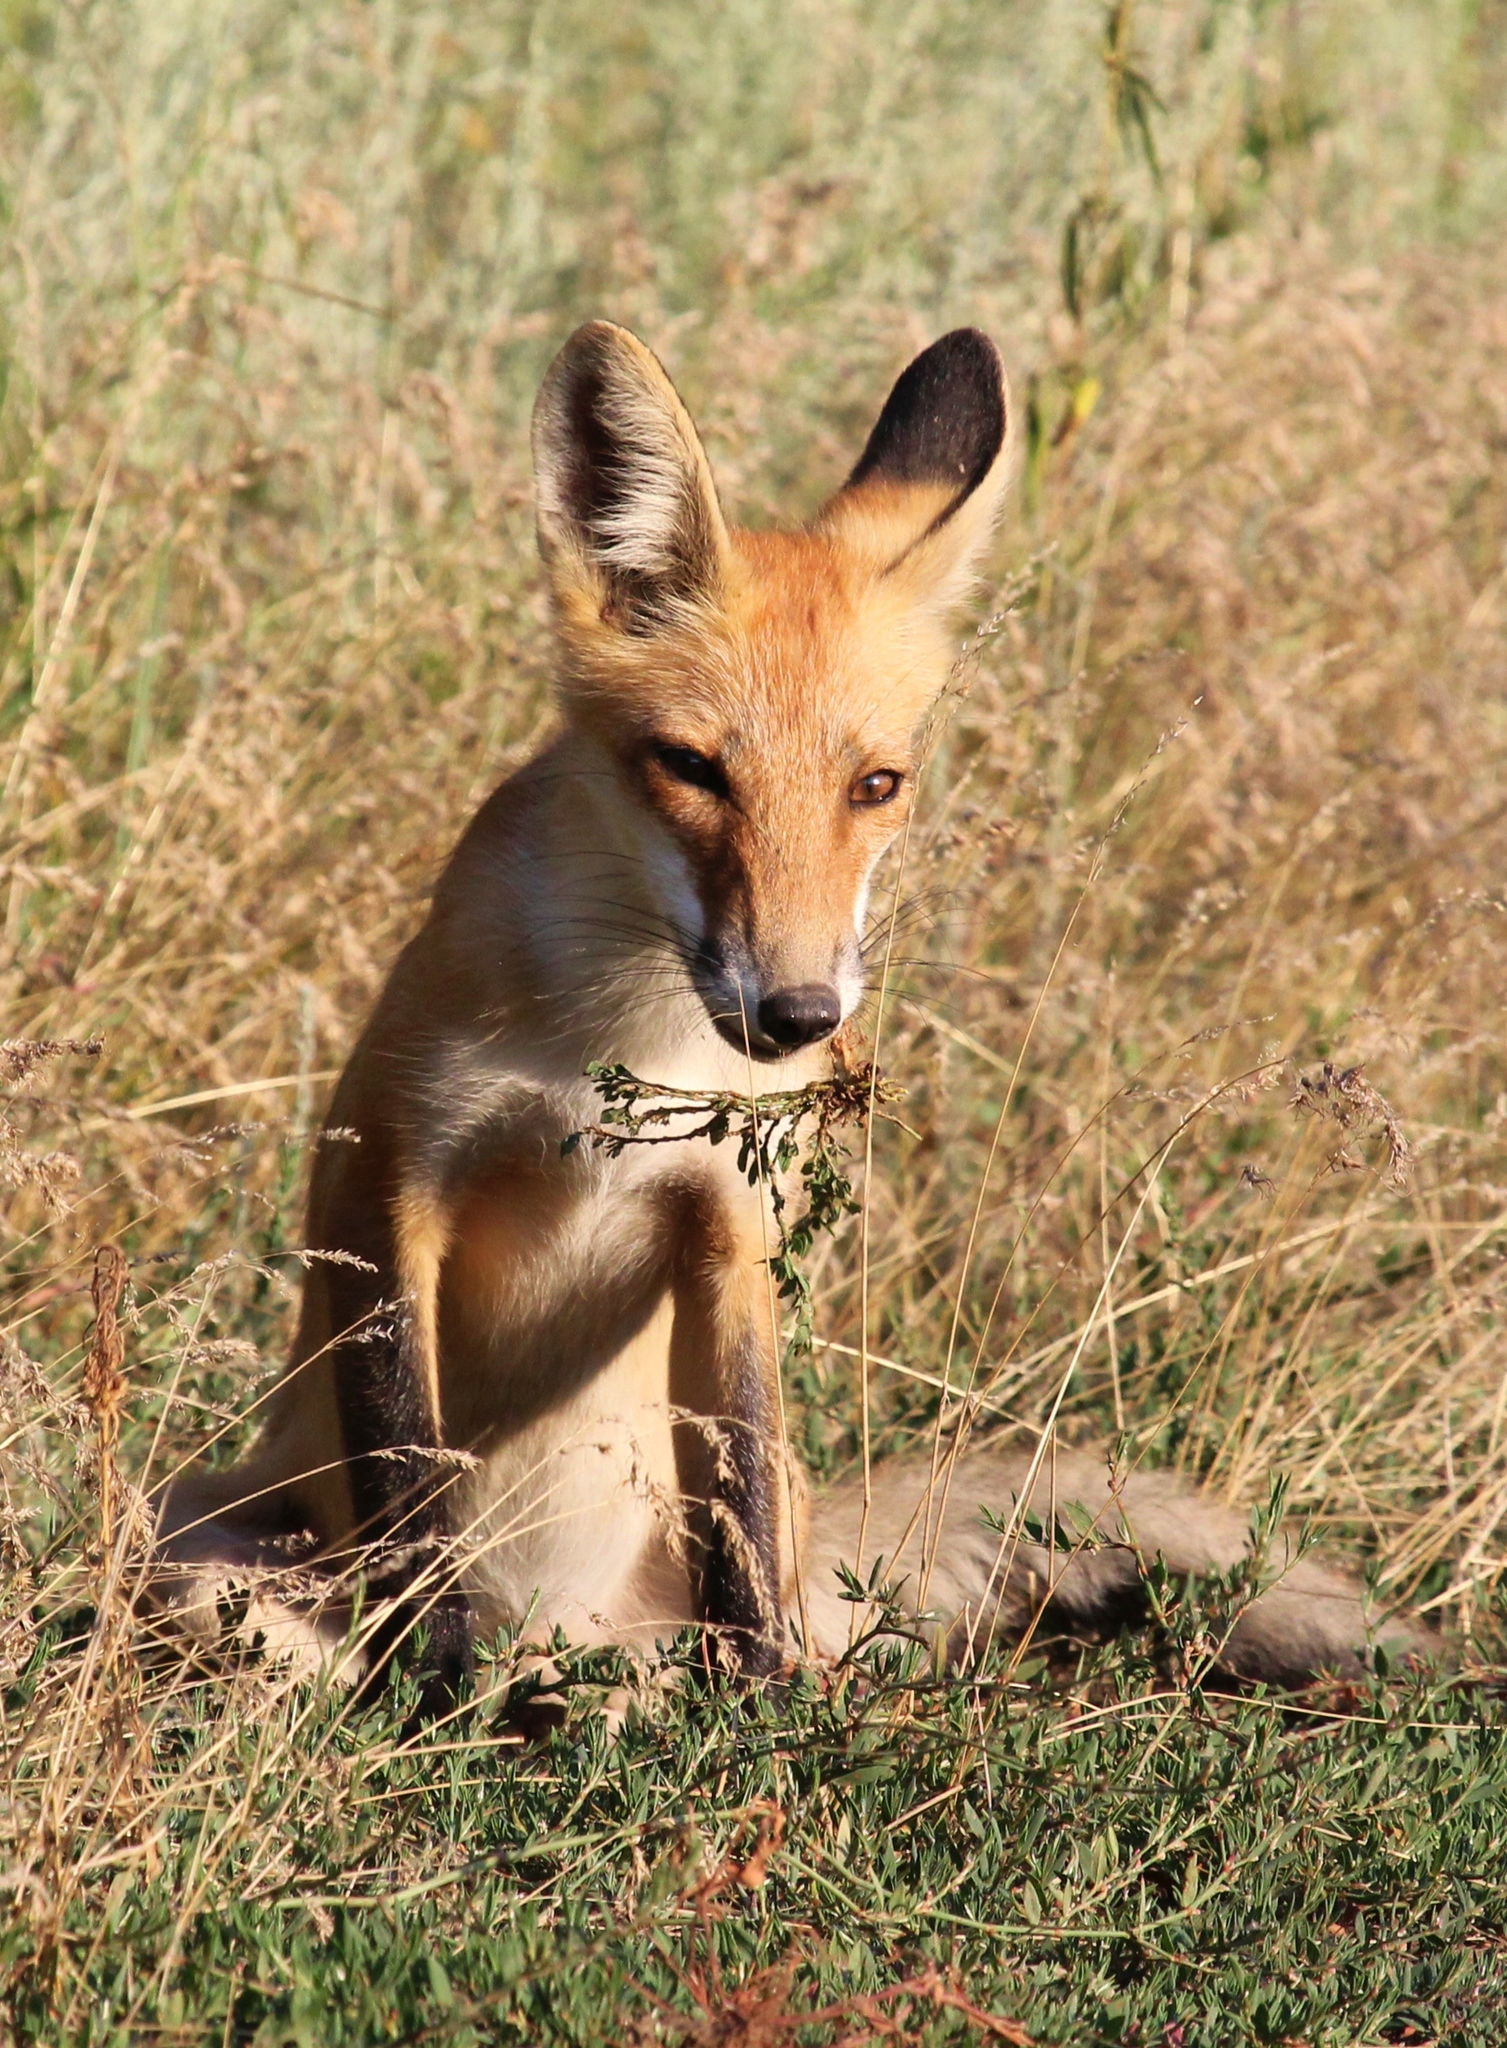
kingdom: Animalia
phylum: Chordata
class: Mammalia
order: Carnivora
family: Canidae
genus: Vulpes
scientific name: Vulpes vulpes
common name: Red fox
